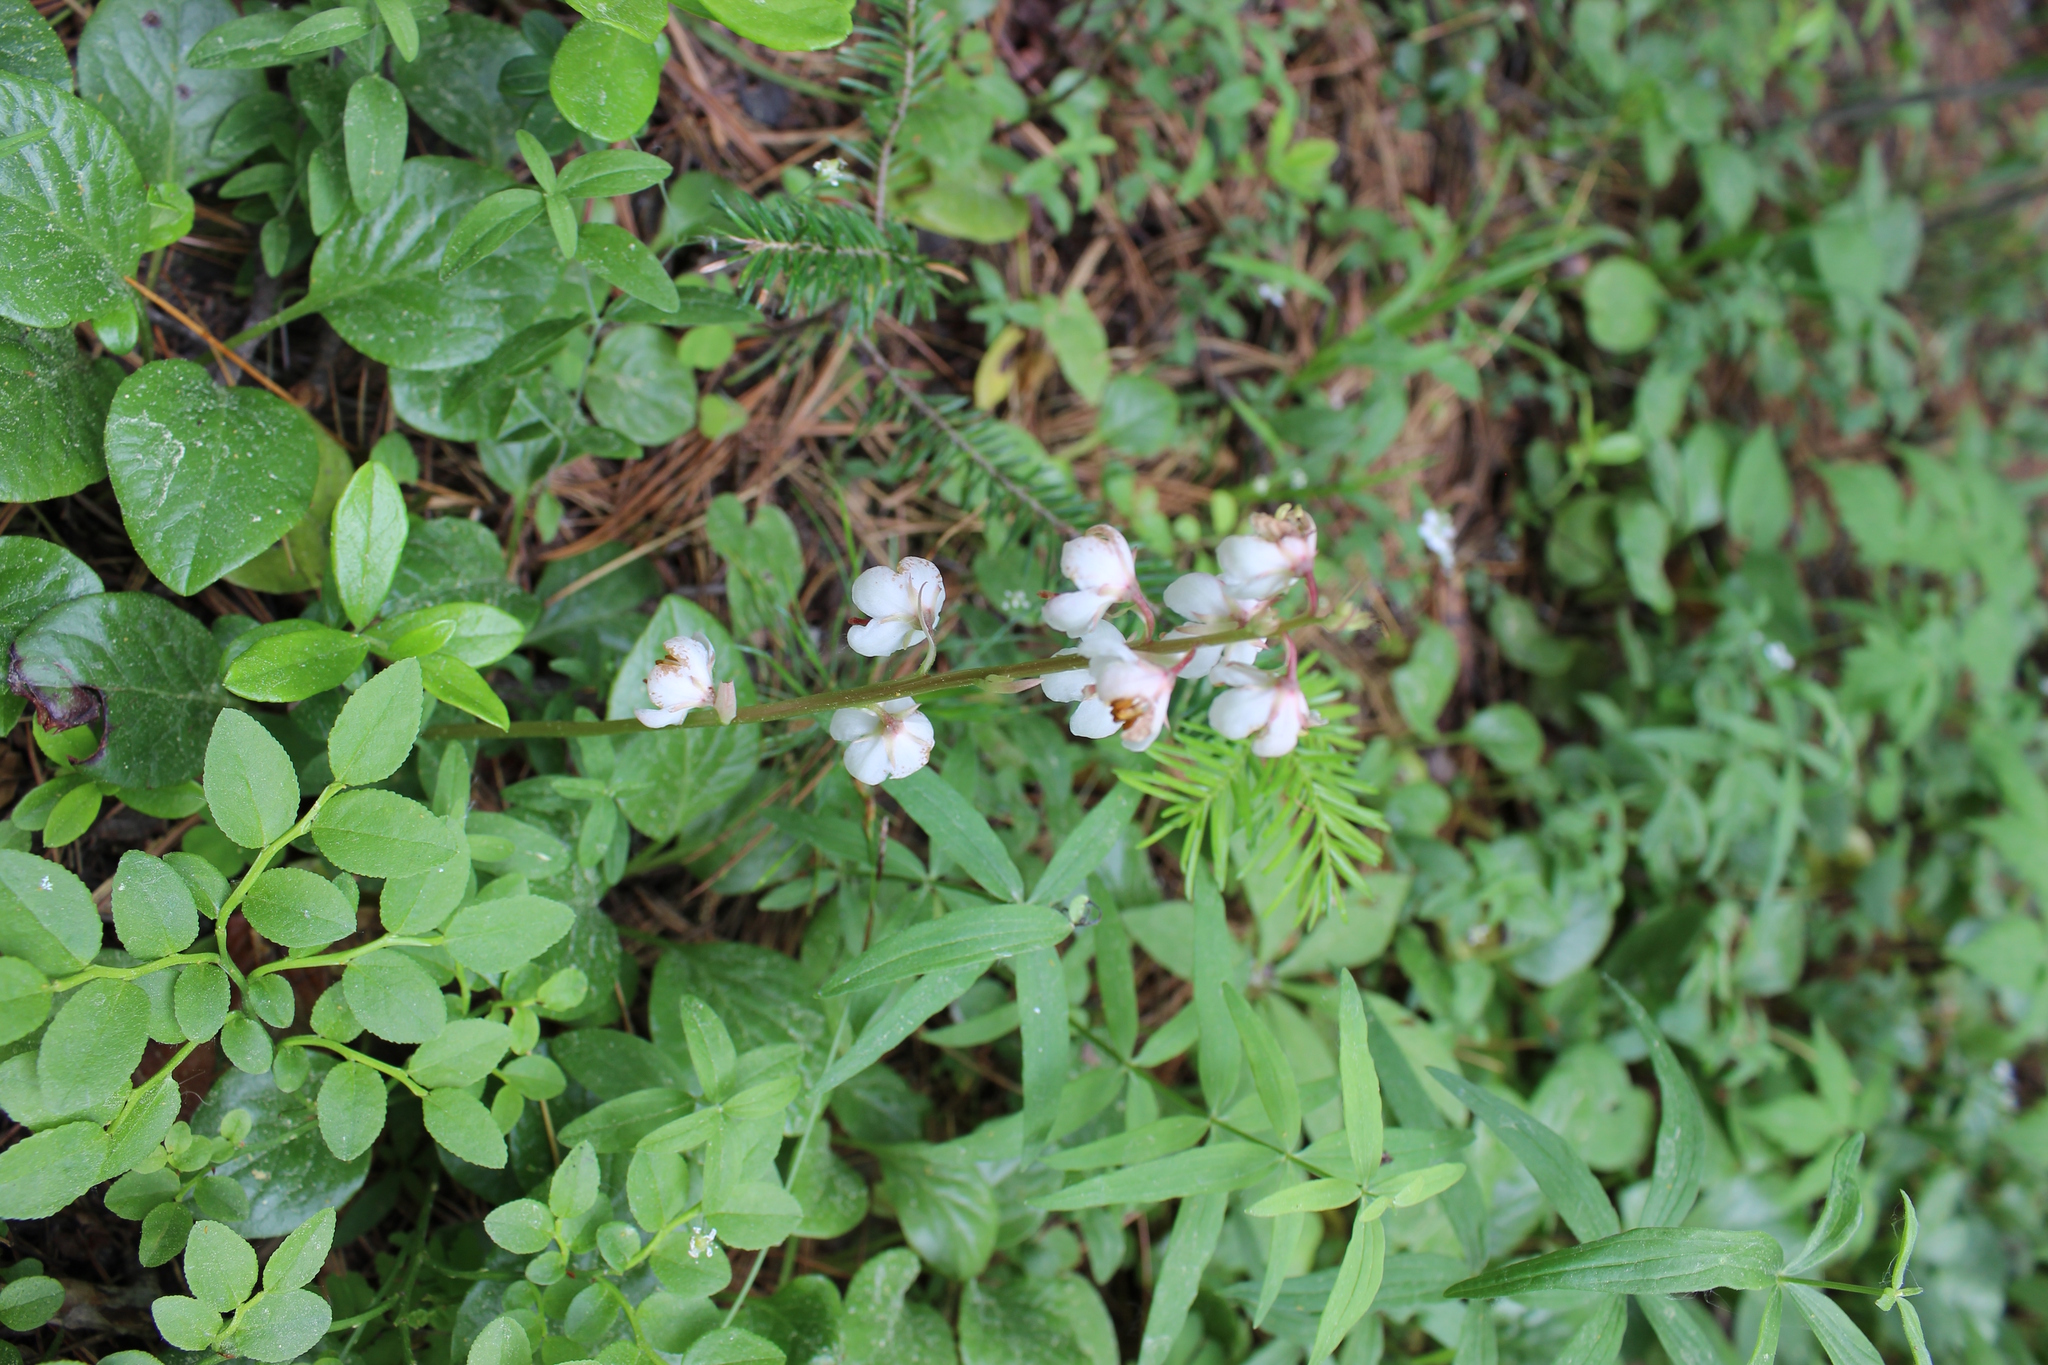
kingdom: Plantae
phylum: Tracheophyta
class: Magnoliopsida
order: Ericales
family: Ericaceae
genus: Pyrola
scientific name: Pyrola rotundifolia
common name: Round-leaved wintergreen
